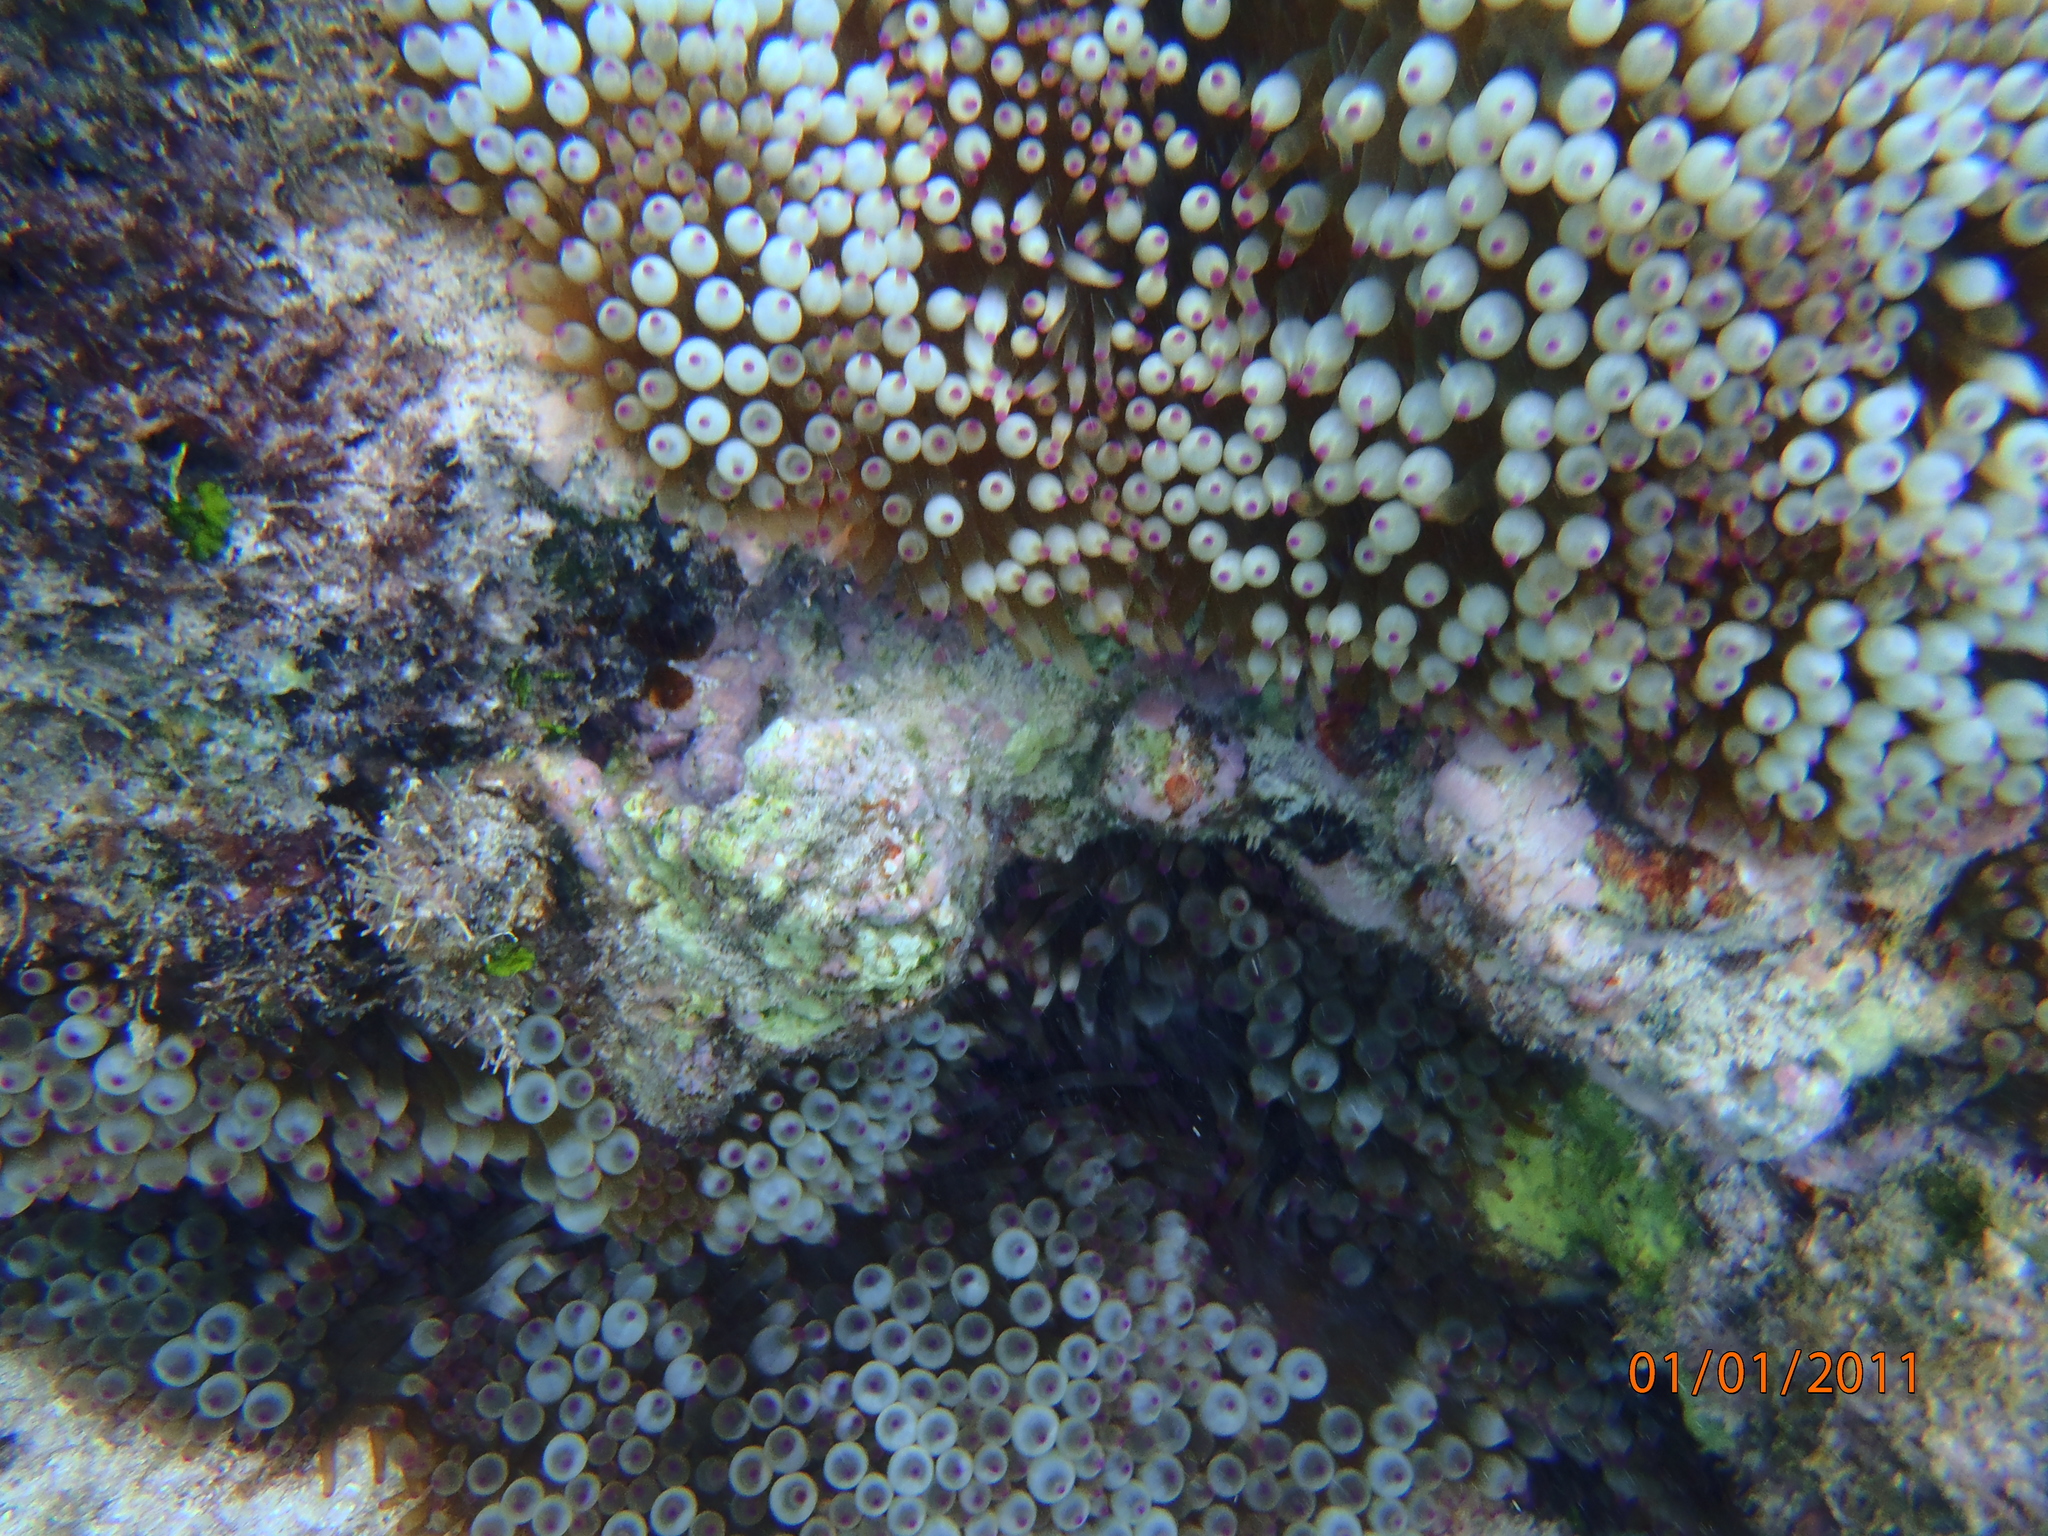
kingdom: Animalia
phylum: Cnidaria
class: Anthozoa
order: Actiniaria
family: Actiniidae
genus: Entacmaea
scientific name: Entacmaea quadricolor
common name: Bulb tentacle sea anemone
